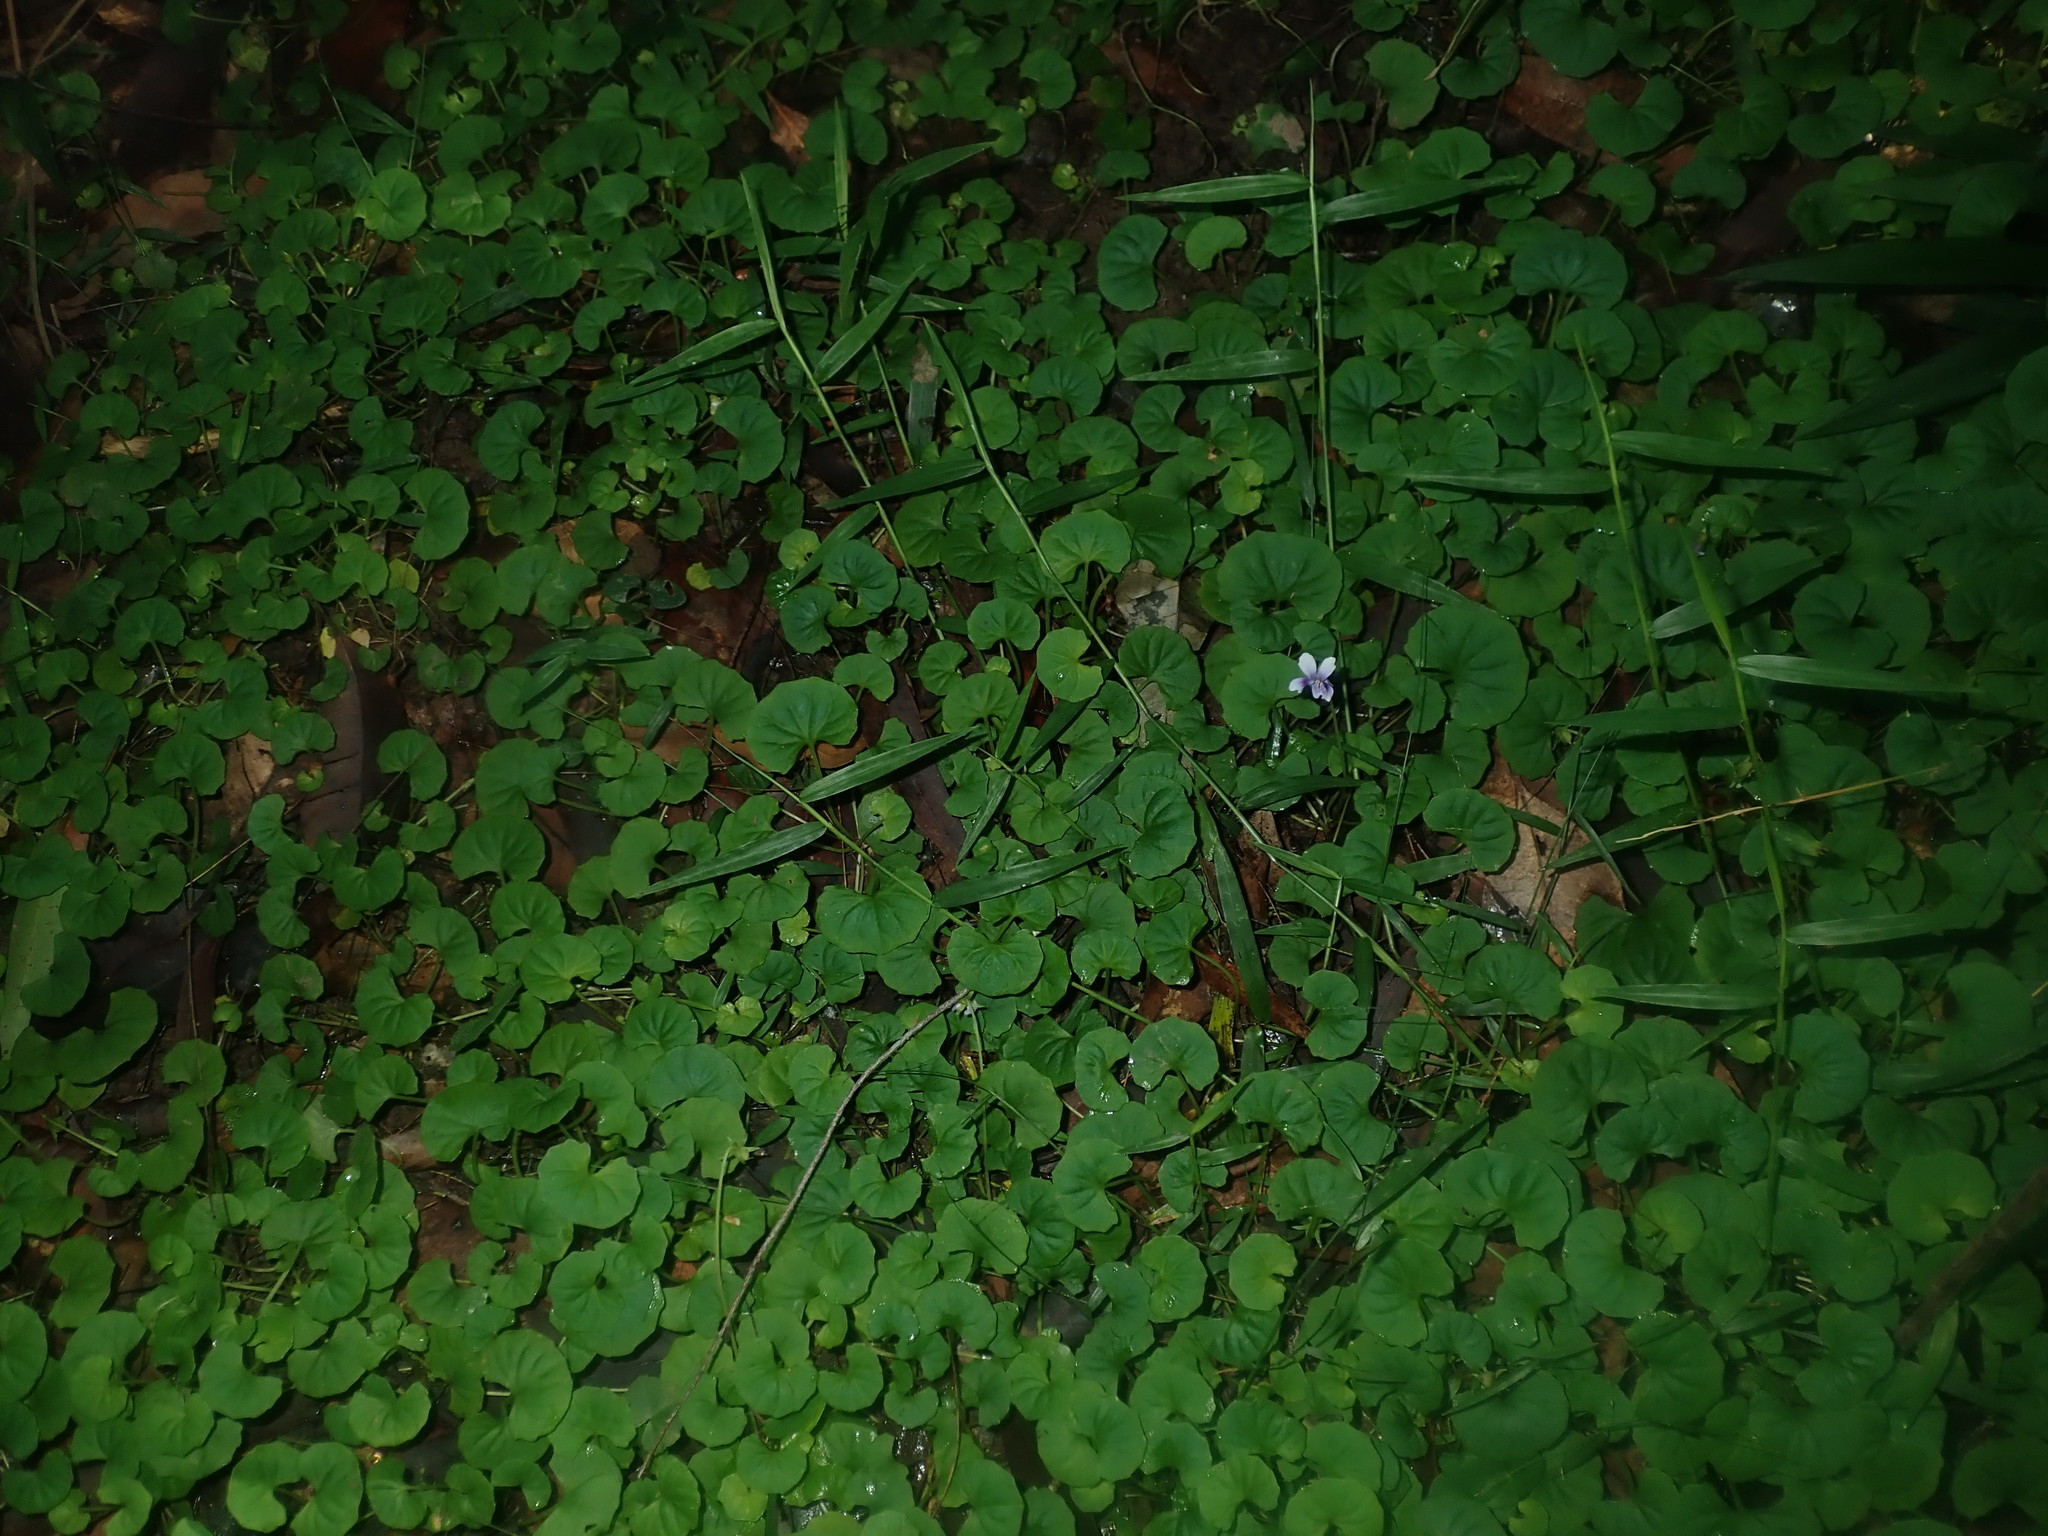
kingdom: Plantae
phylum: Tracheophyta
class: Magnoliopsida
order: Malpighiales
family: Violaceae
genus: Viola
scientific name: Viola banksii
